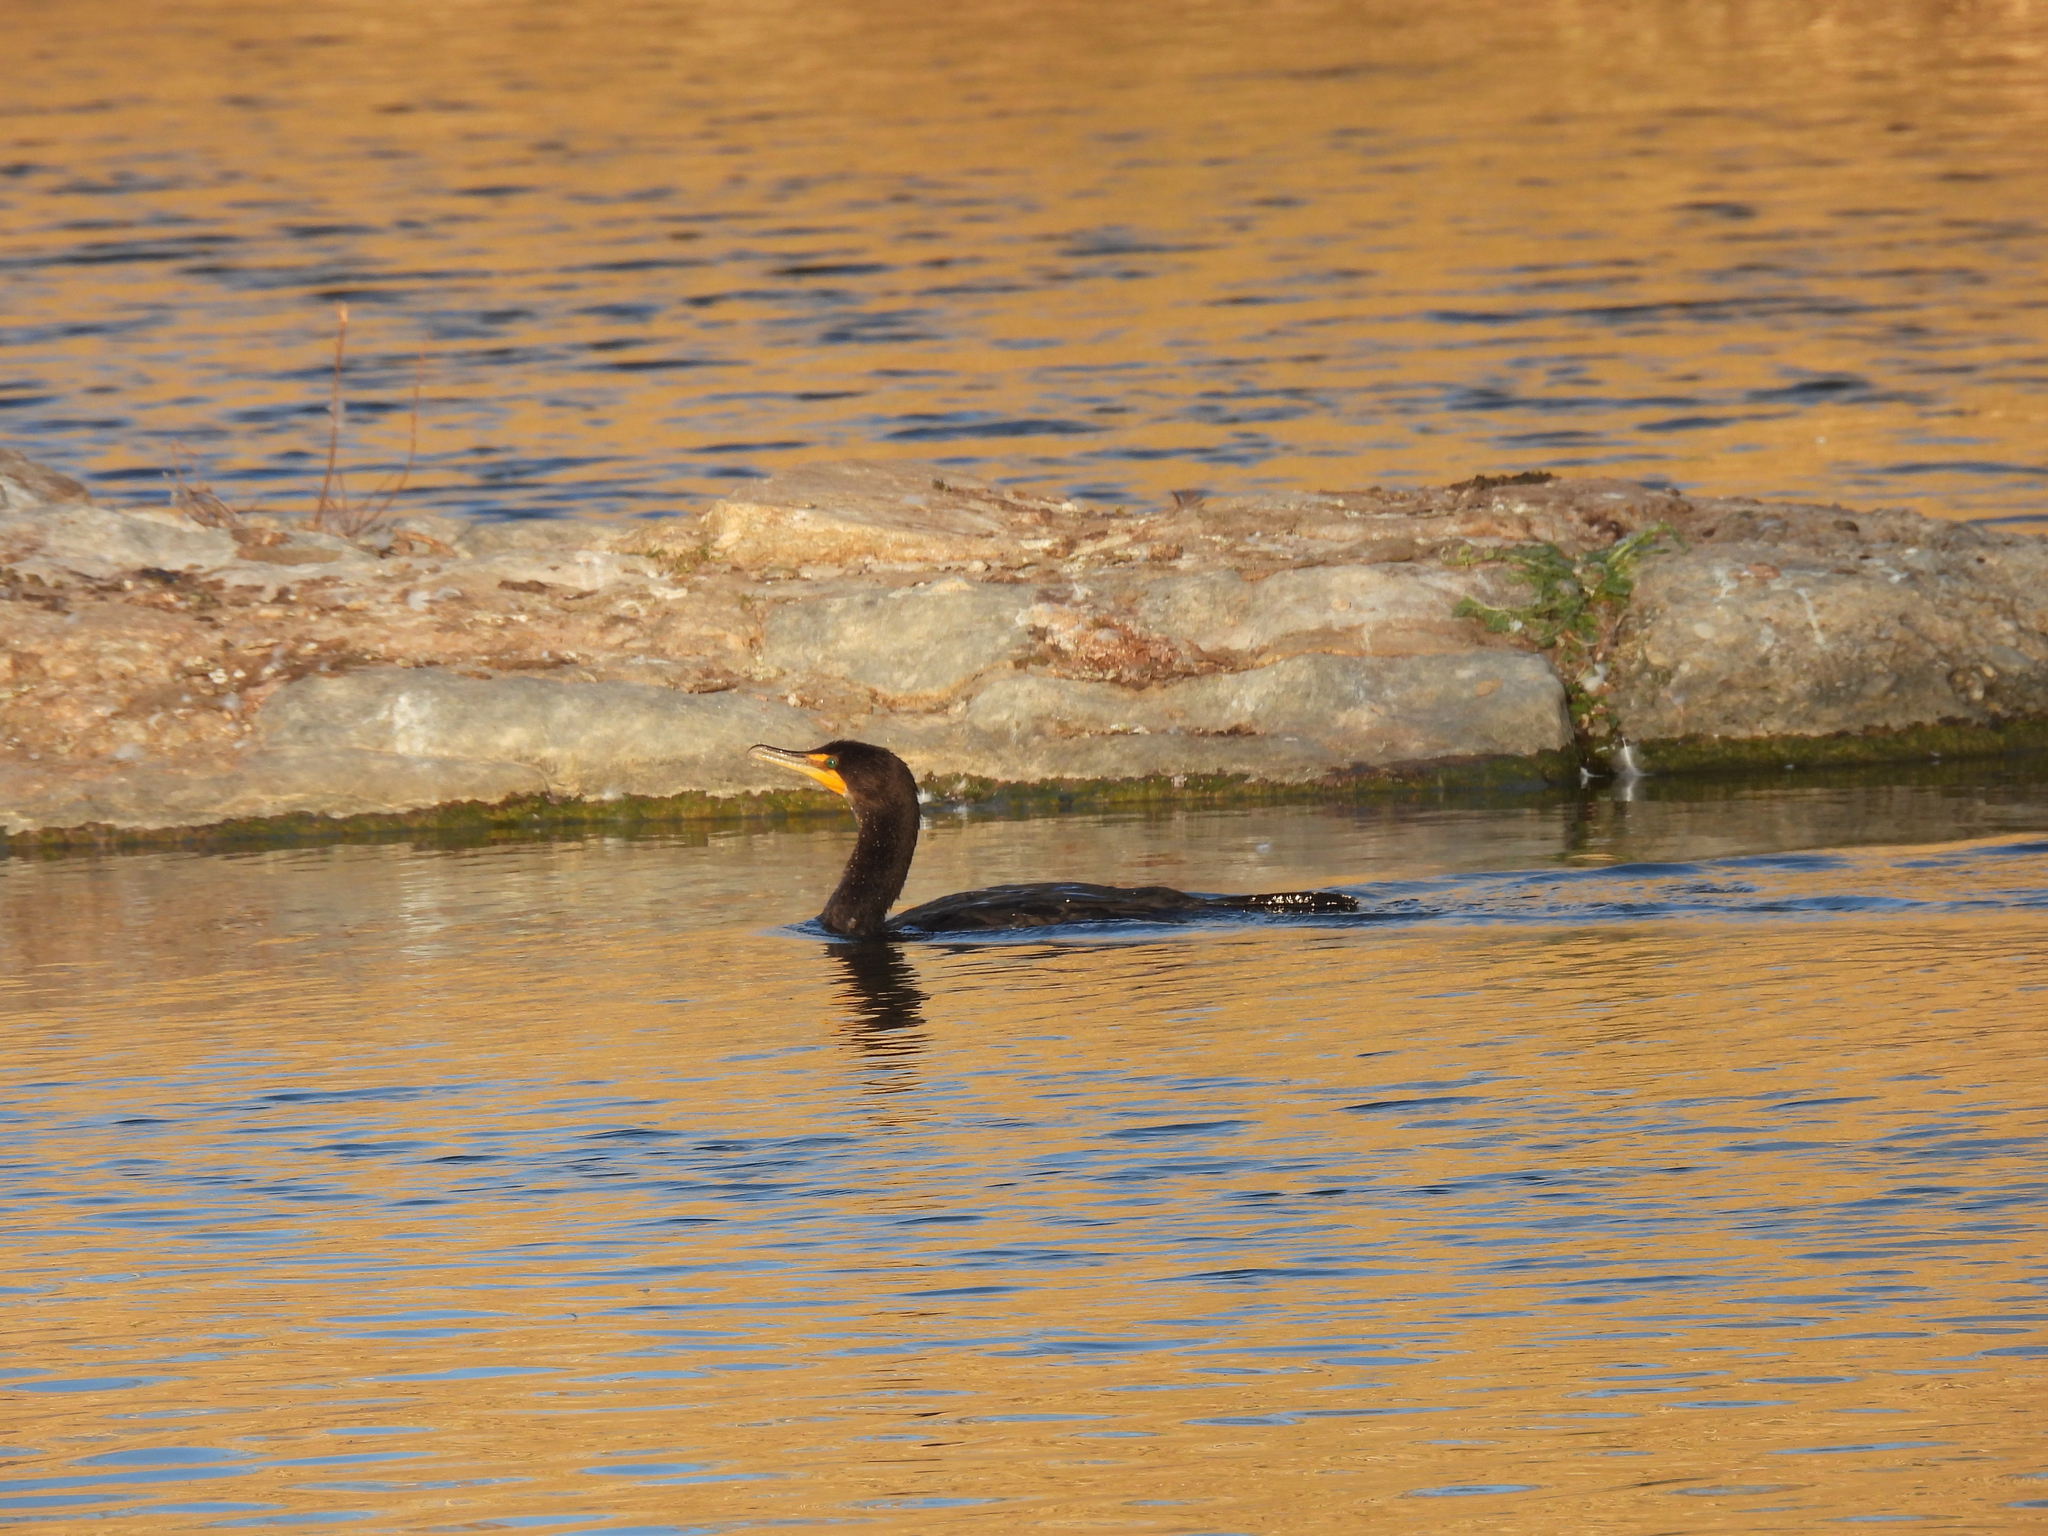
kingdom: Animalia
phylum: Chordata
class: Aves
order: Suliformes
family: Phalacrocoracidae
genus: Phalacrocorax
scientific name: Phalacrocorax auritus
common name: Double-crested cormorant
